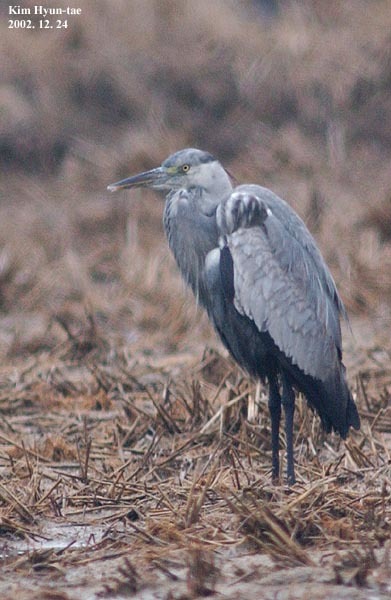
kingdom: Animalia
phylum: Chordata
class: Aves
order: Pelecaniformes
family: Ardeidae
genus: Ardea
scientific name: Ardea cinerea
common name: Grey heron
